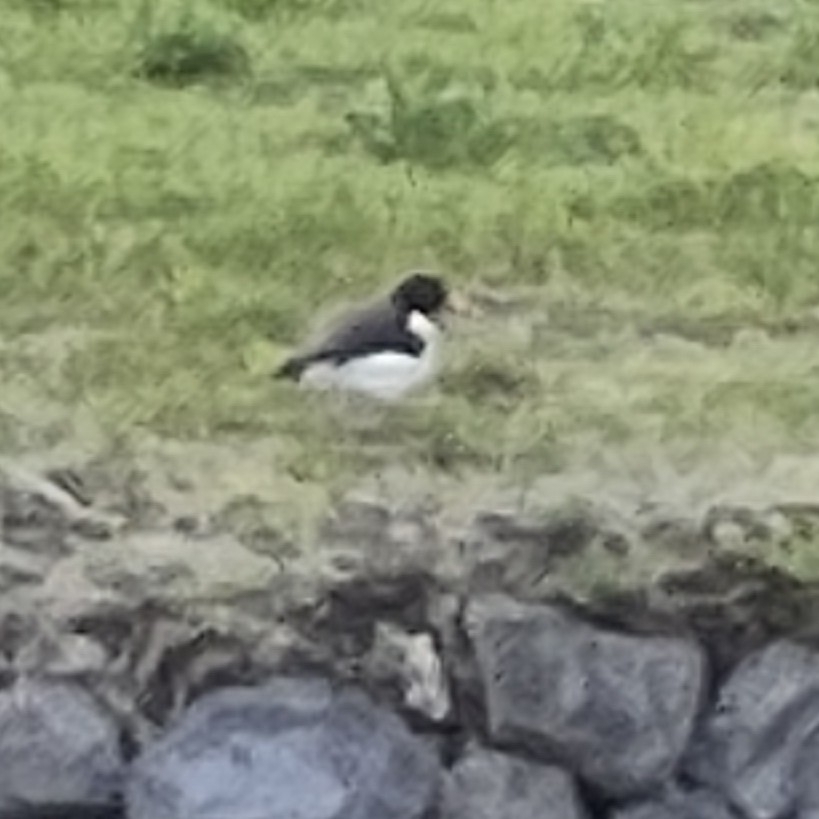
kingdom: Animalia
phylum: Chordata
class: Aves
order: Charadriiformes
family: Haematopodidae
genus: Haematopus
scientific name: Haematopus ostralegus
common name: Eurasian oystercatcher
